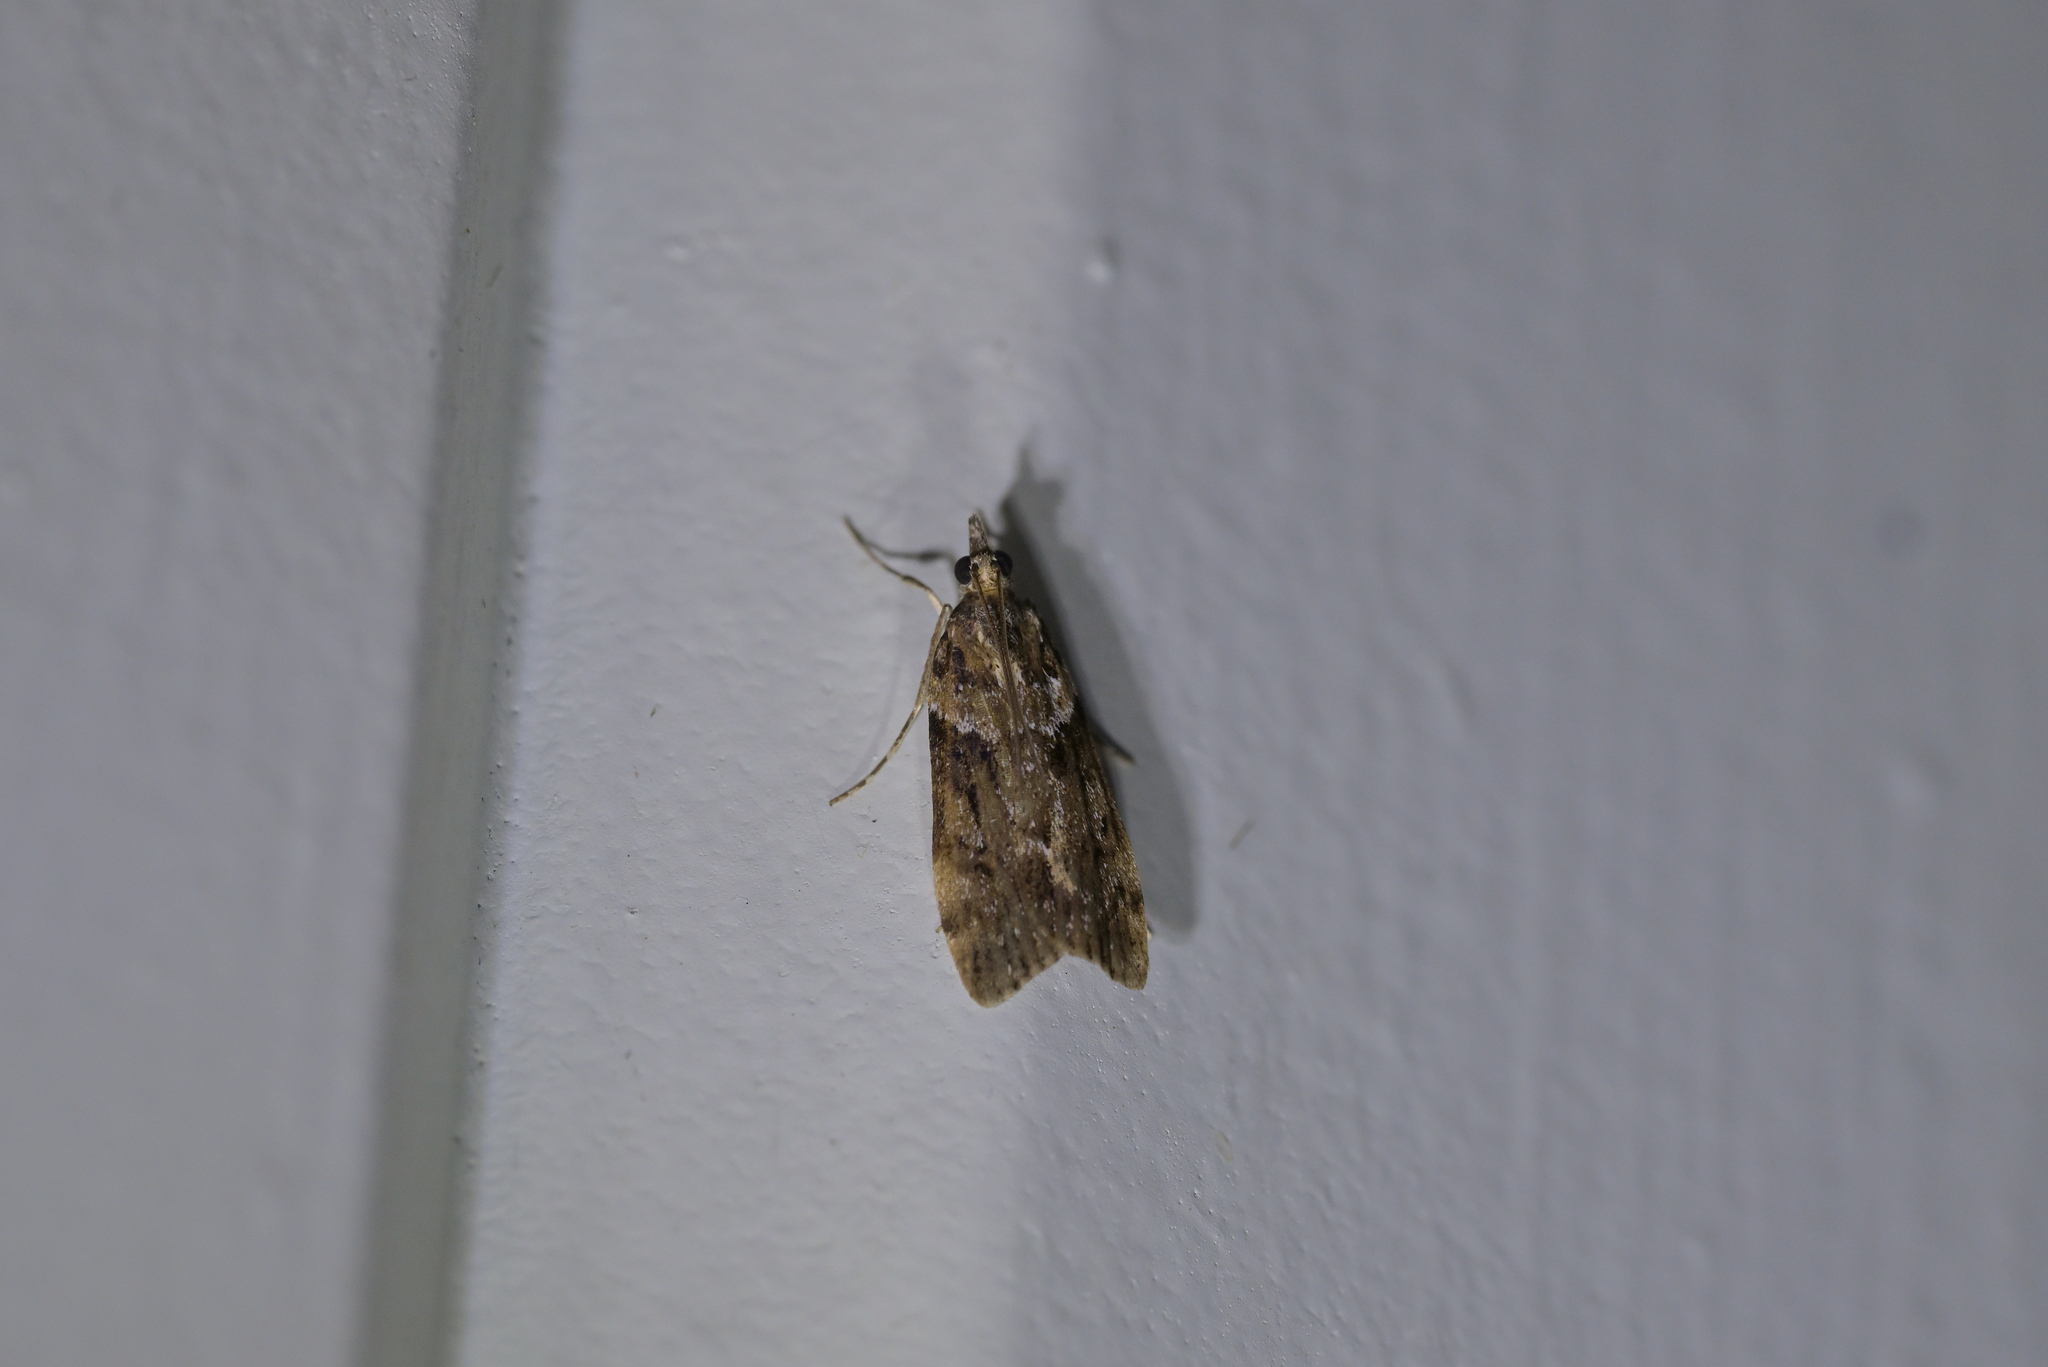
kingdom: Animalia
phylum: Arthropoda
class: Insecta
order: Lepidoptera
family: Crambidae
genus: Eudonia
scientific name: Eudonia submarginalis
